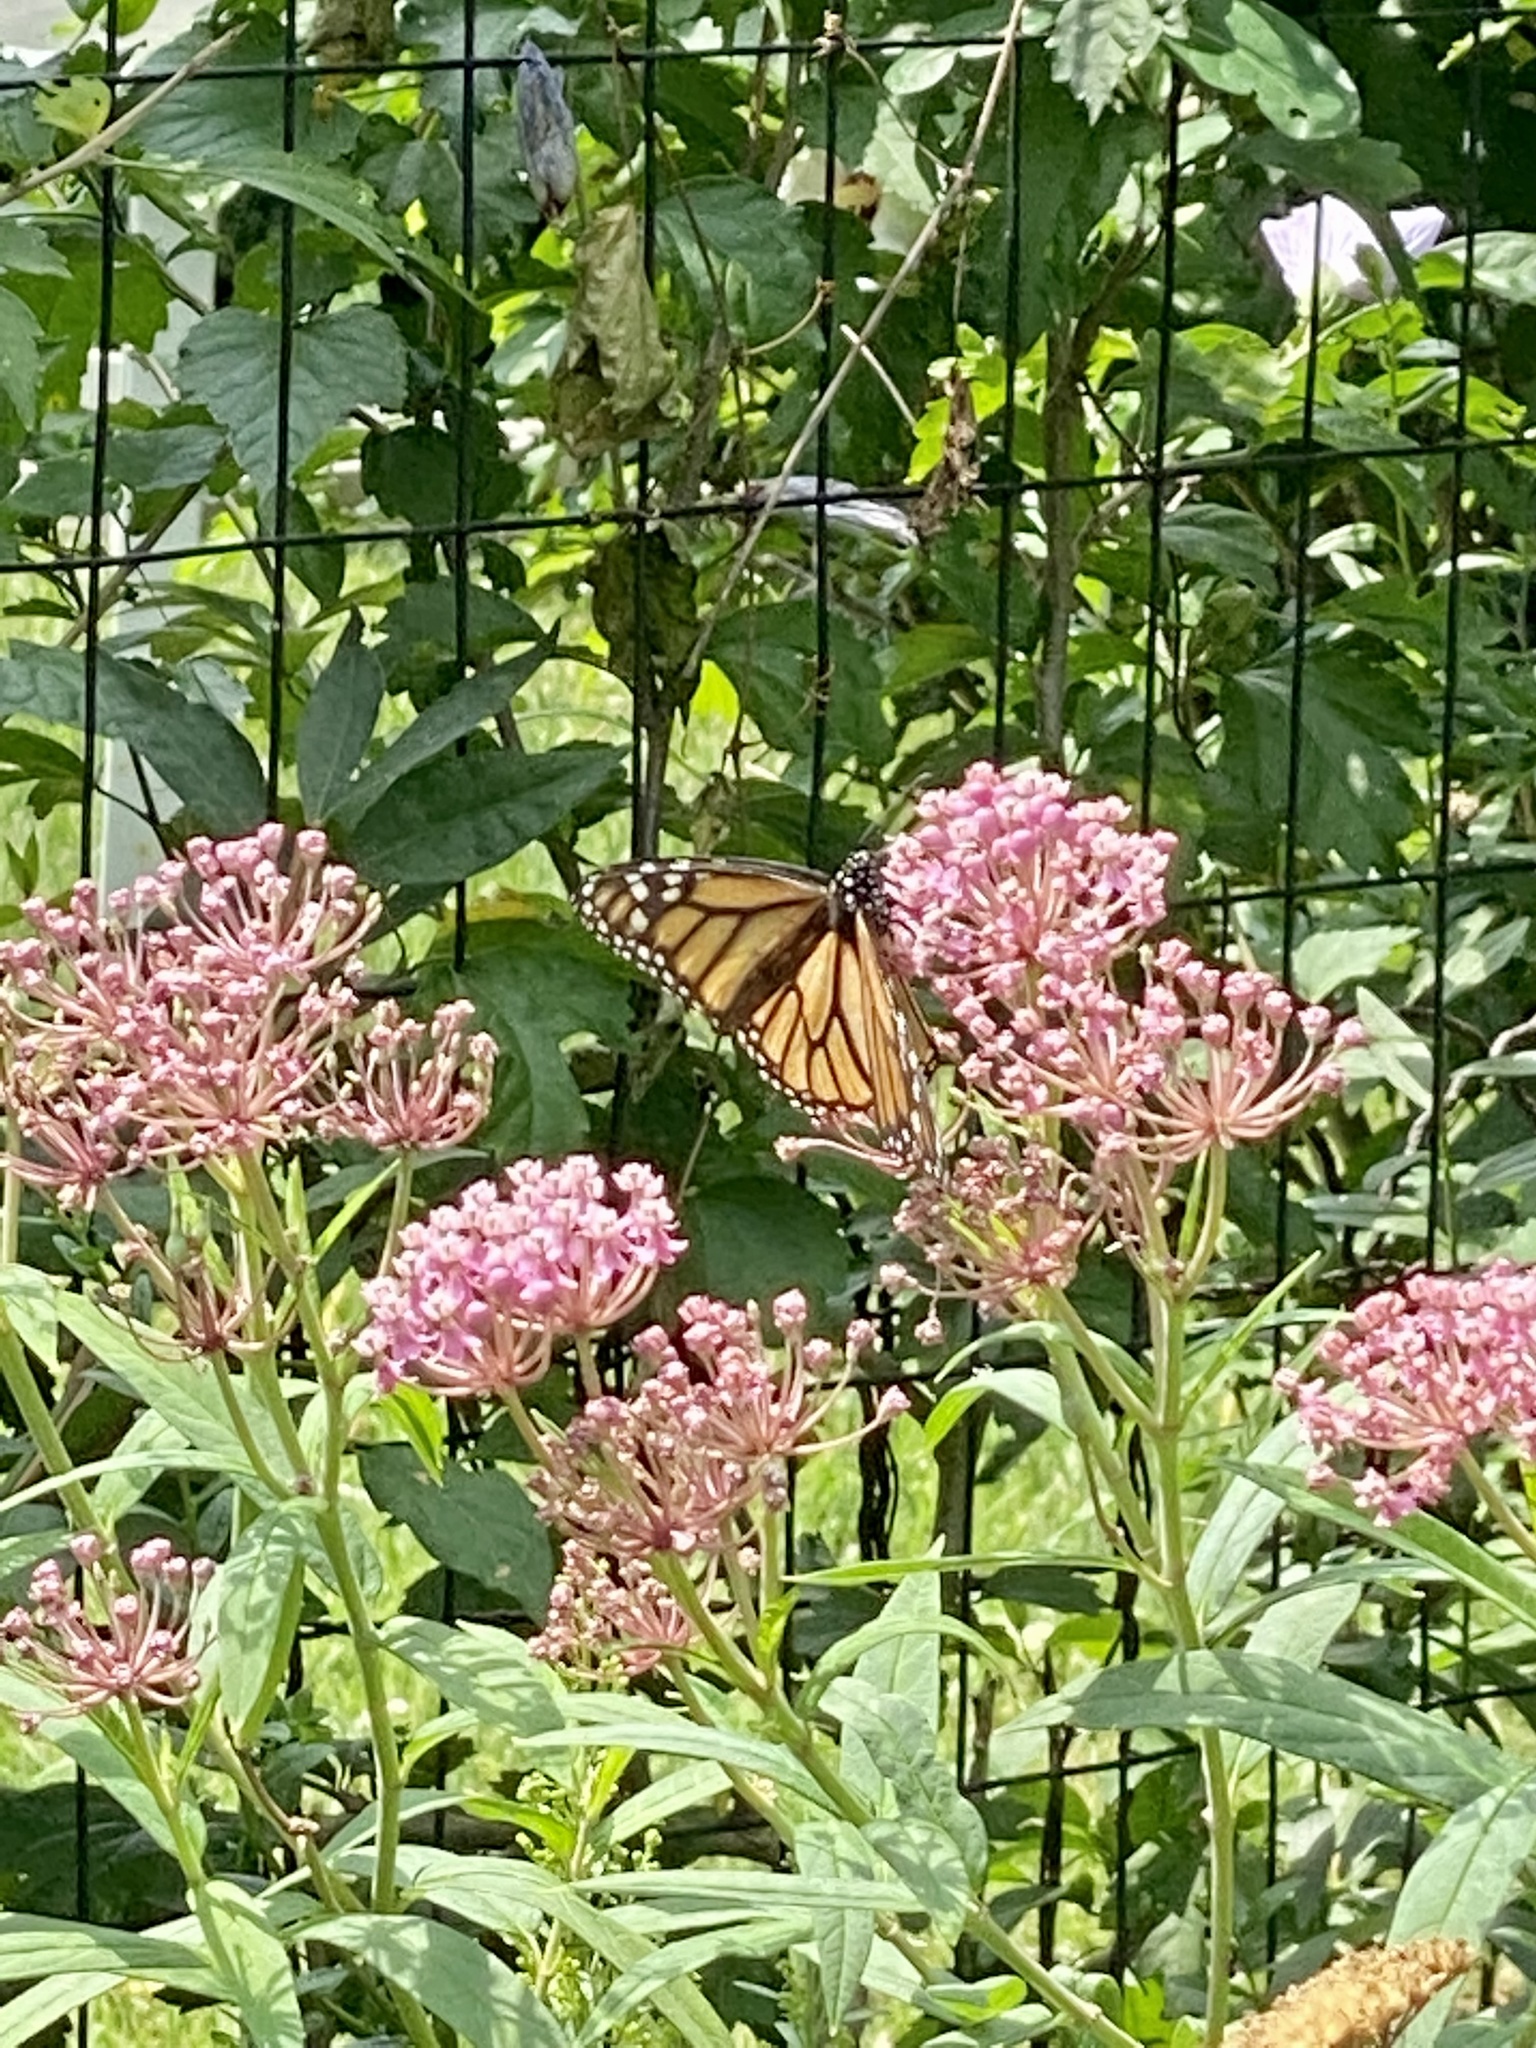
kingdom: Animalia
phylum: Arthropoda
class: Insecta
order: Lepidoptera
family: Nymphalidae
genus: Danaus
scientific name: Danaus plexippus
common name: Monarch
